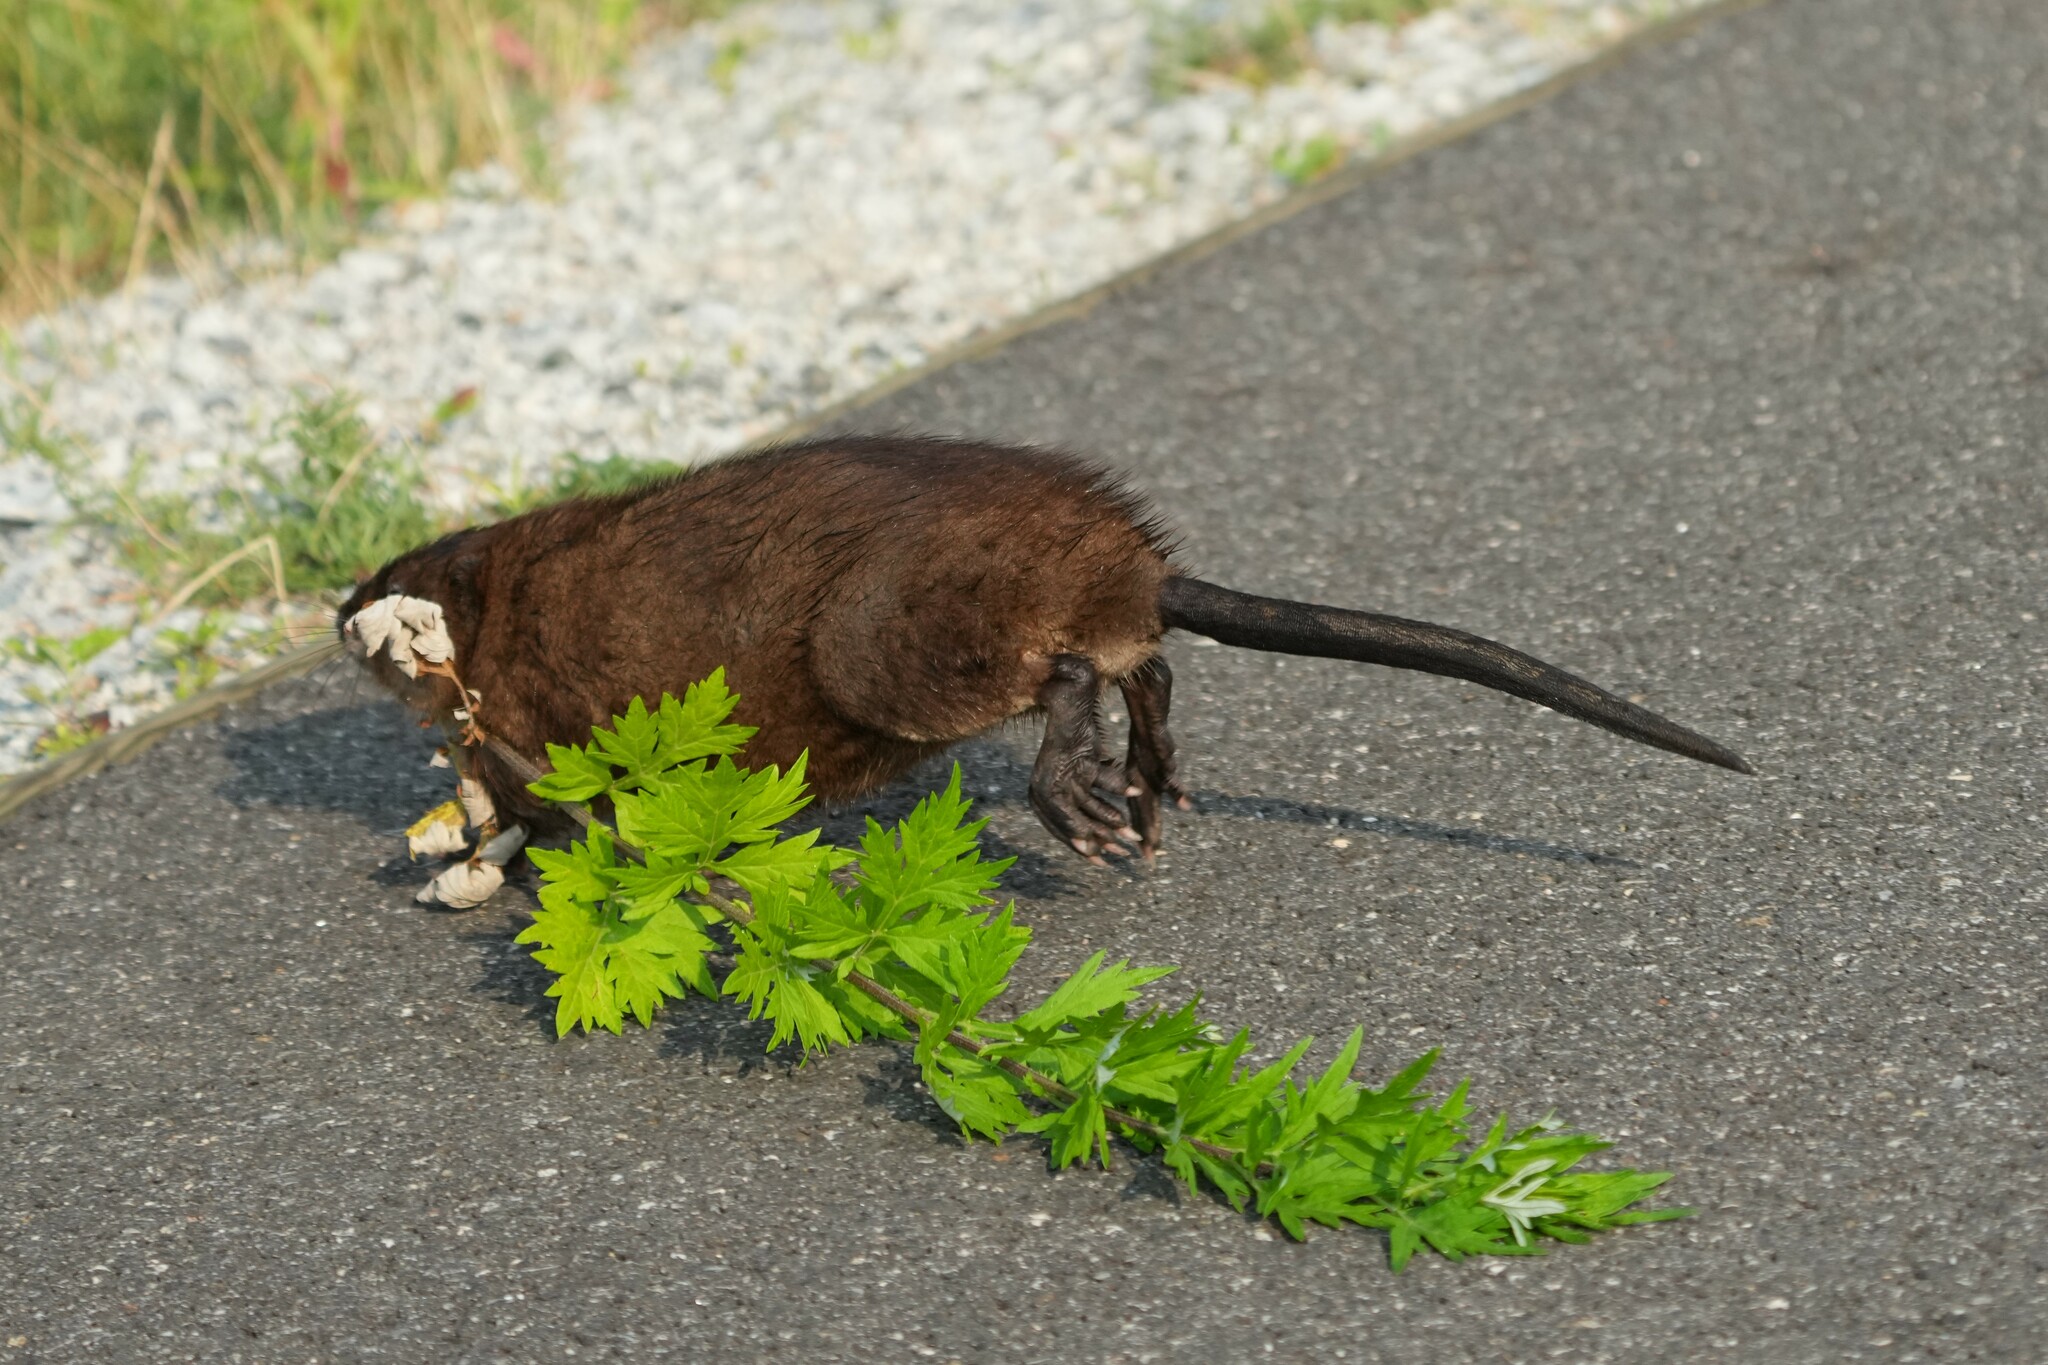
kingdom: Animalia
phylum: Chordata
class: Mammalia
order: Rodentia
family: Cricetidae
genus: Ondatra
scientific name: Ondatra zibethicus
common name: Muskrat
